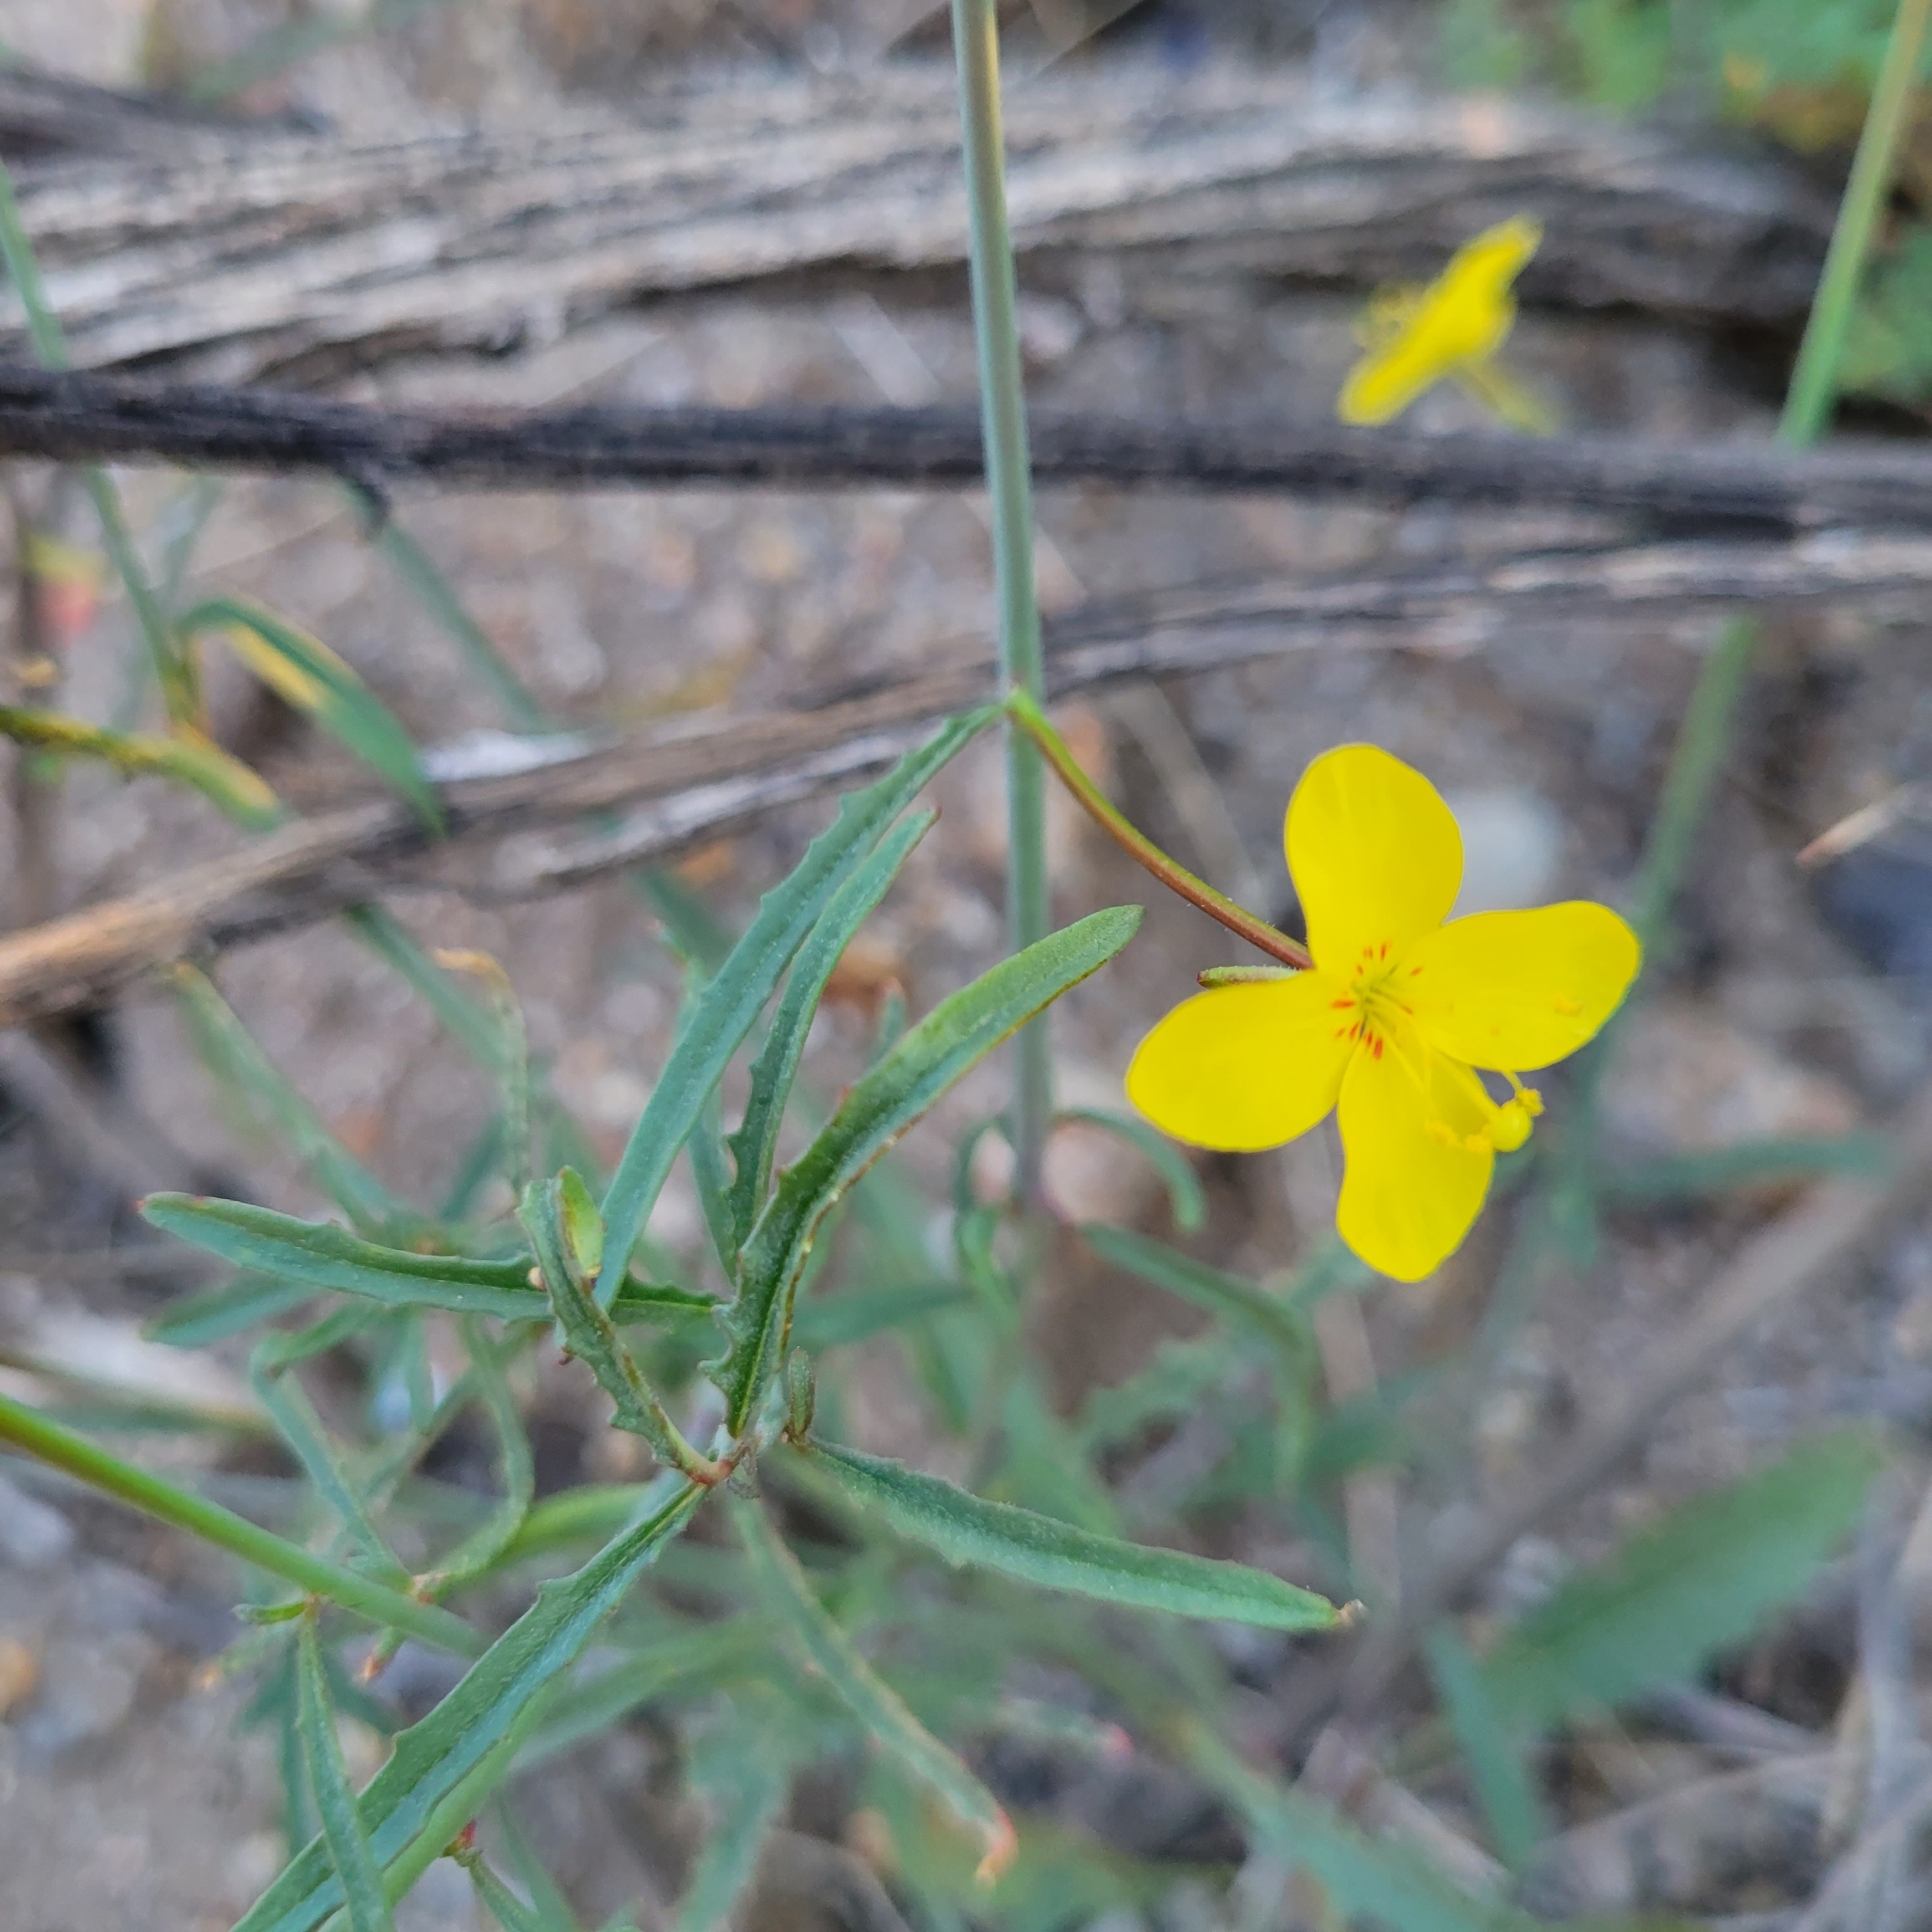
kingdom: Plantae
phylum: Tracheophyta
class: Magnoliopsida
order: Myrtales
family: Onagraceae
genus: Eulobus
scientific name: Eulobus californicus
